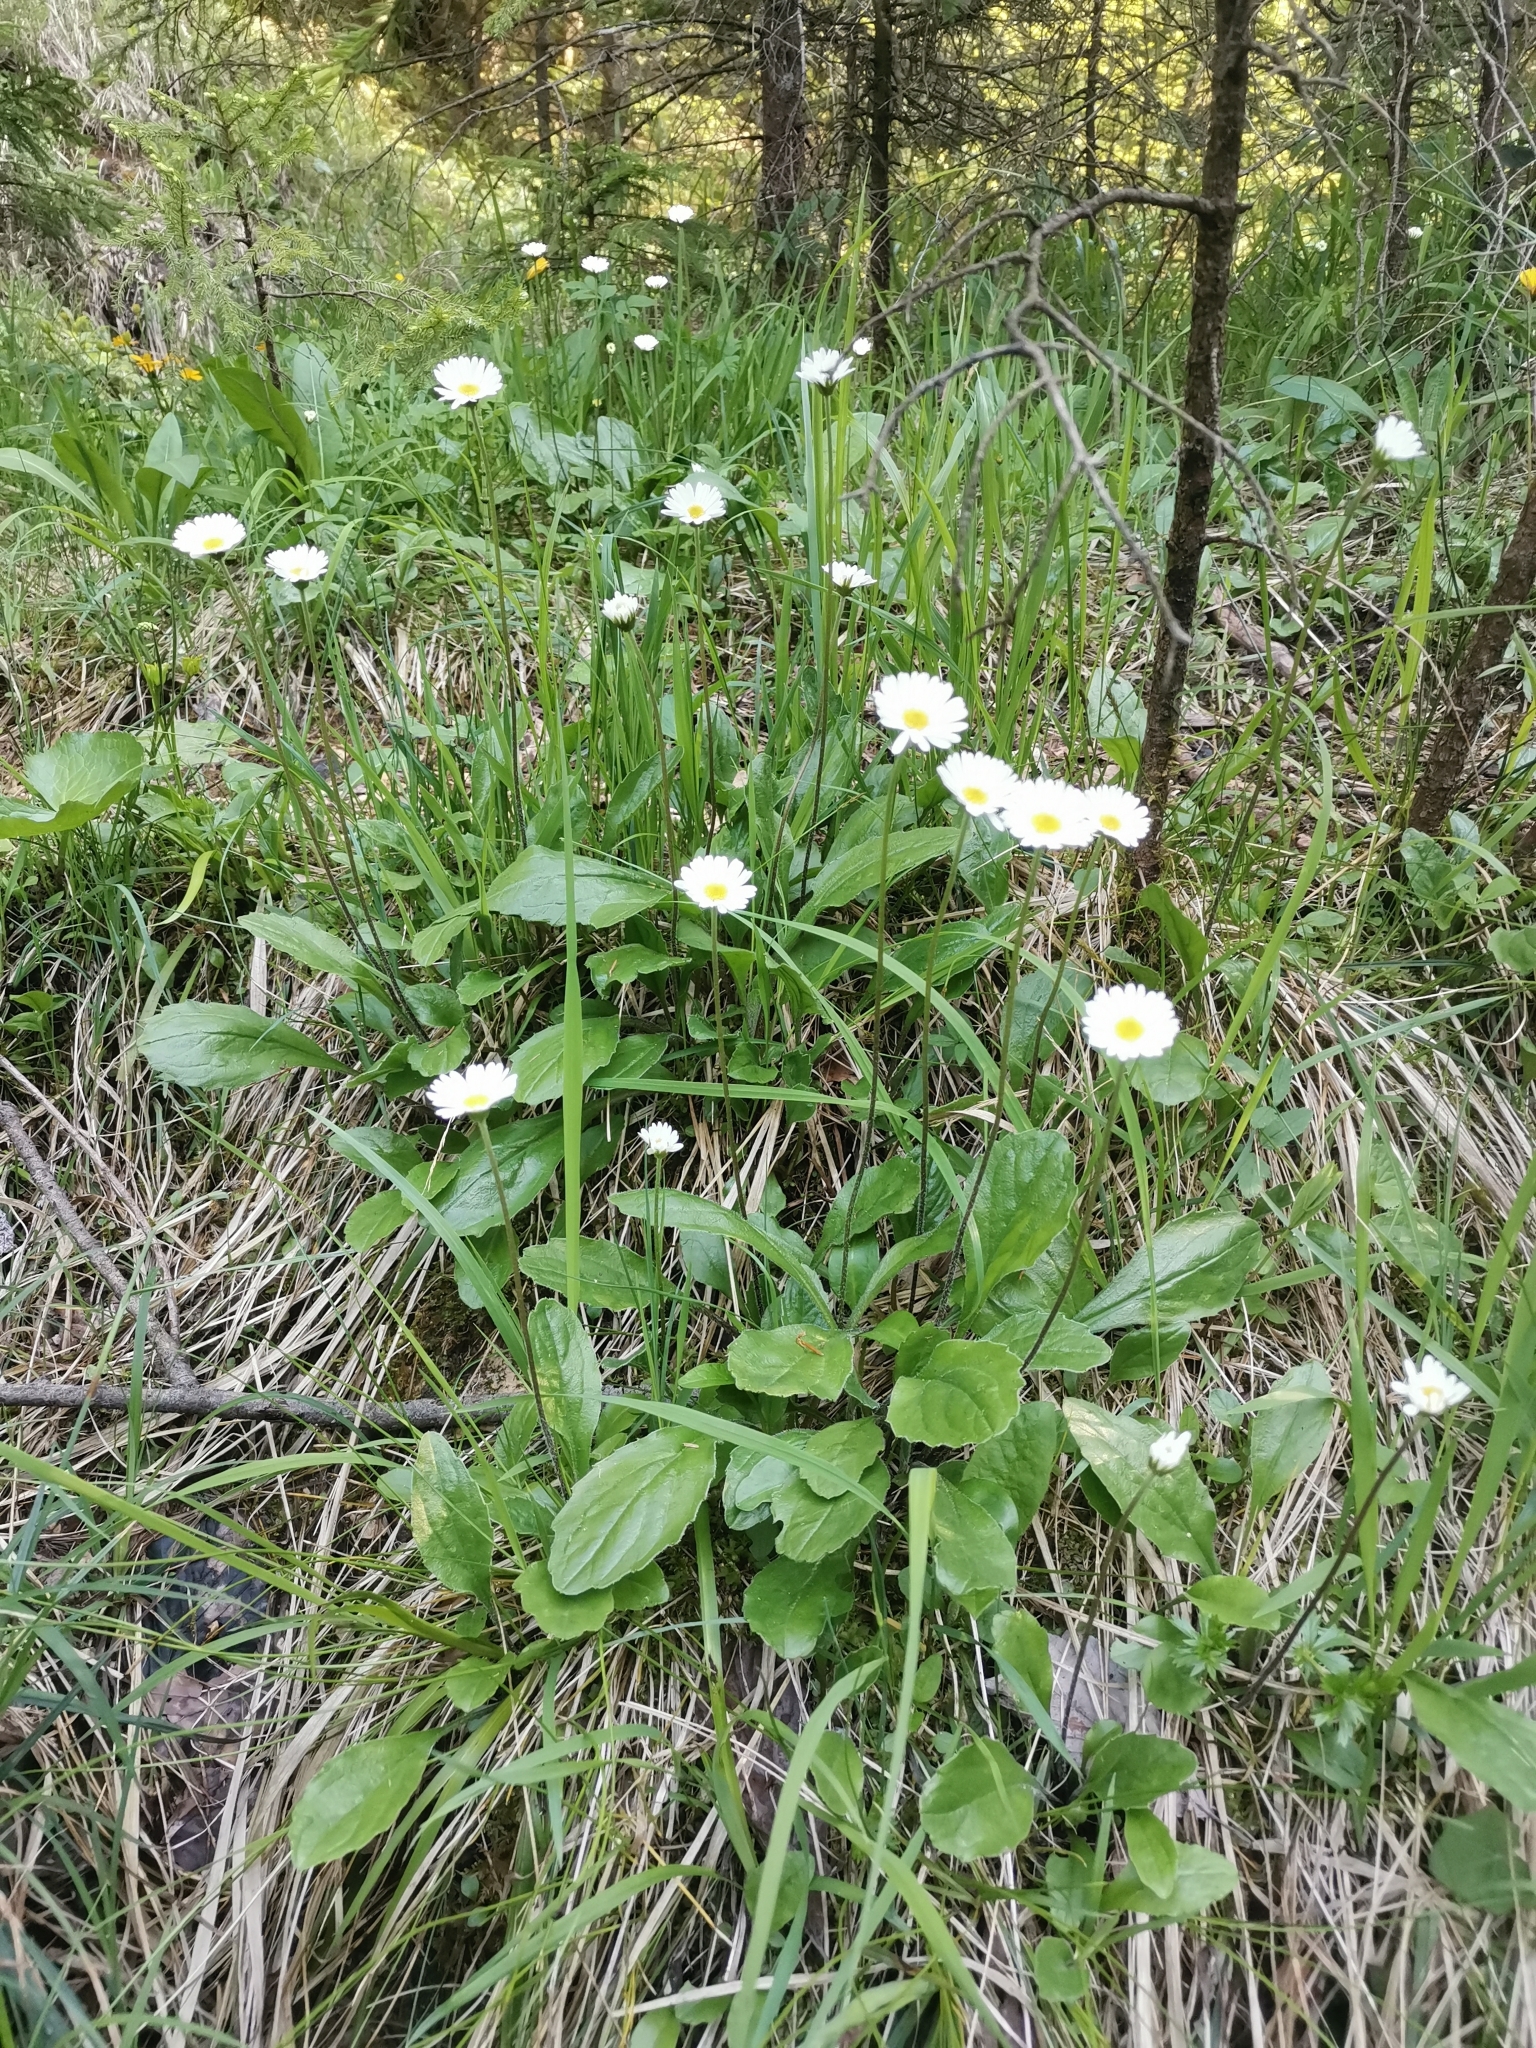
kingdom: Plantae
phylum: Tracheophyta
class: Magnoliopsida
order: Asterales
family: Asteraceae
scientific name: Asteraceae
